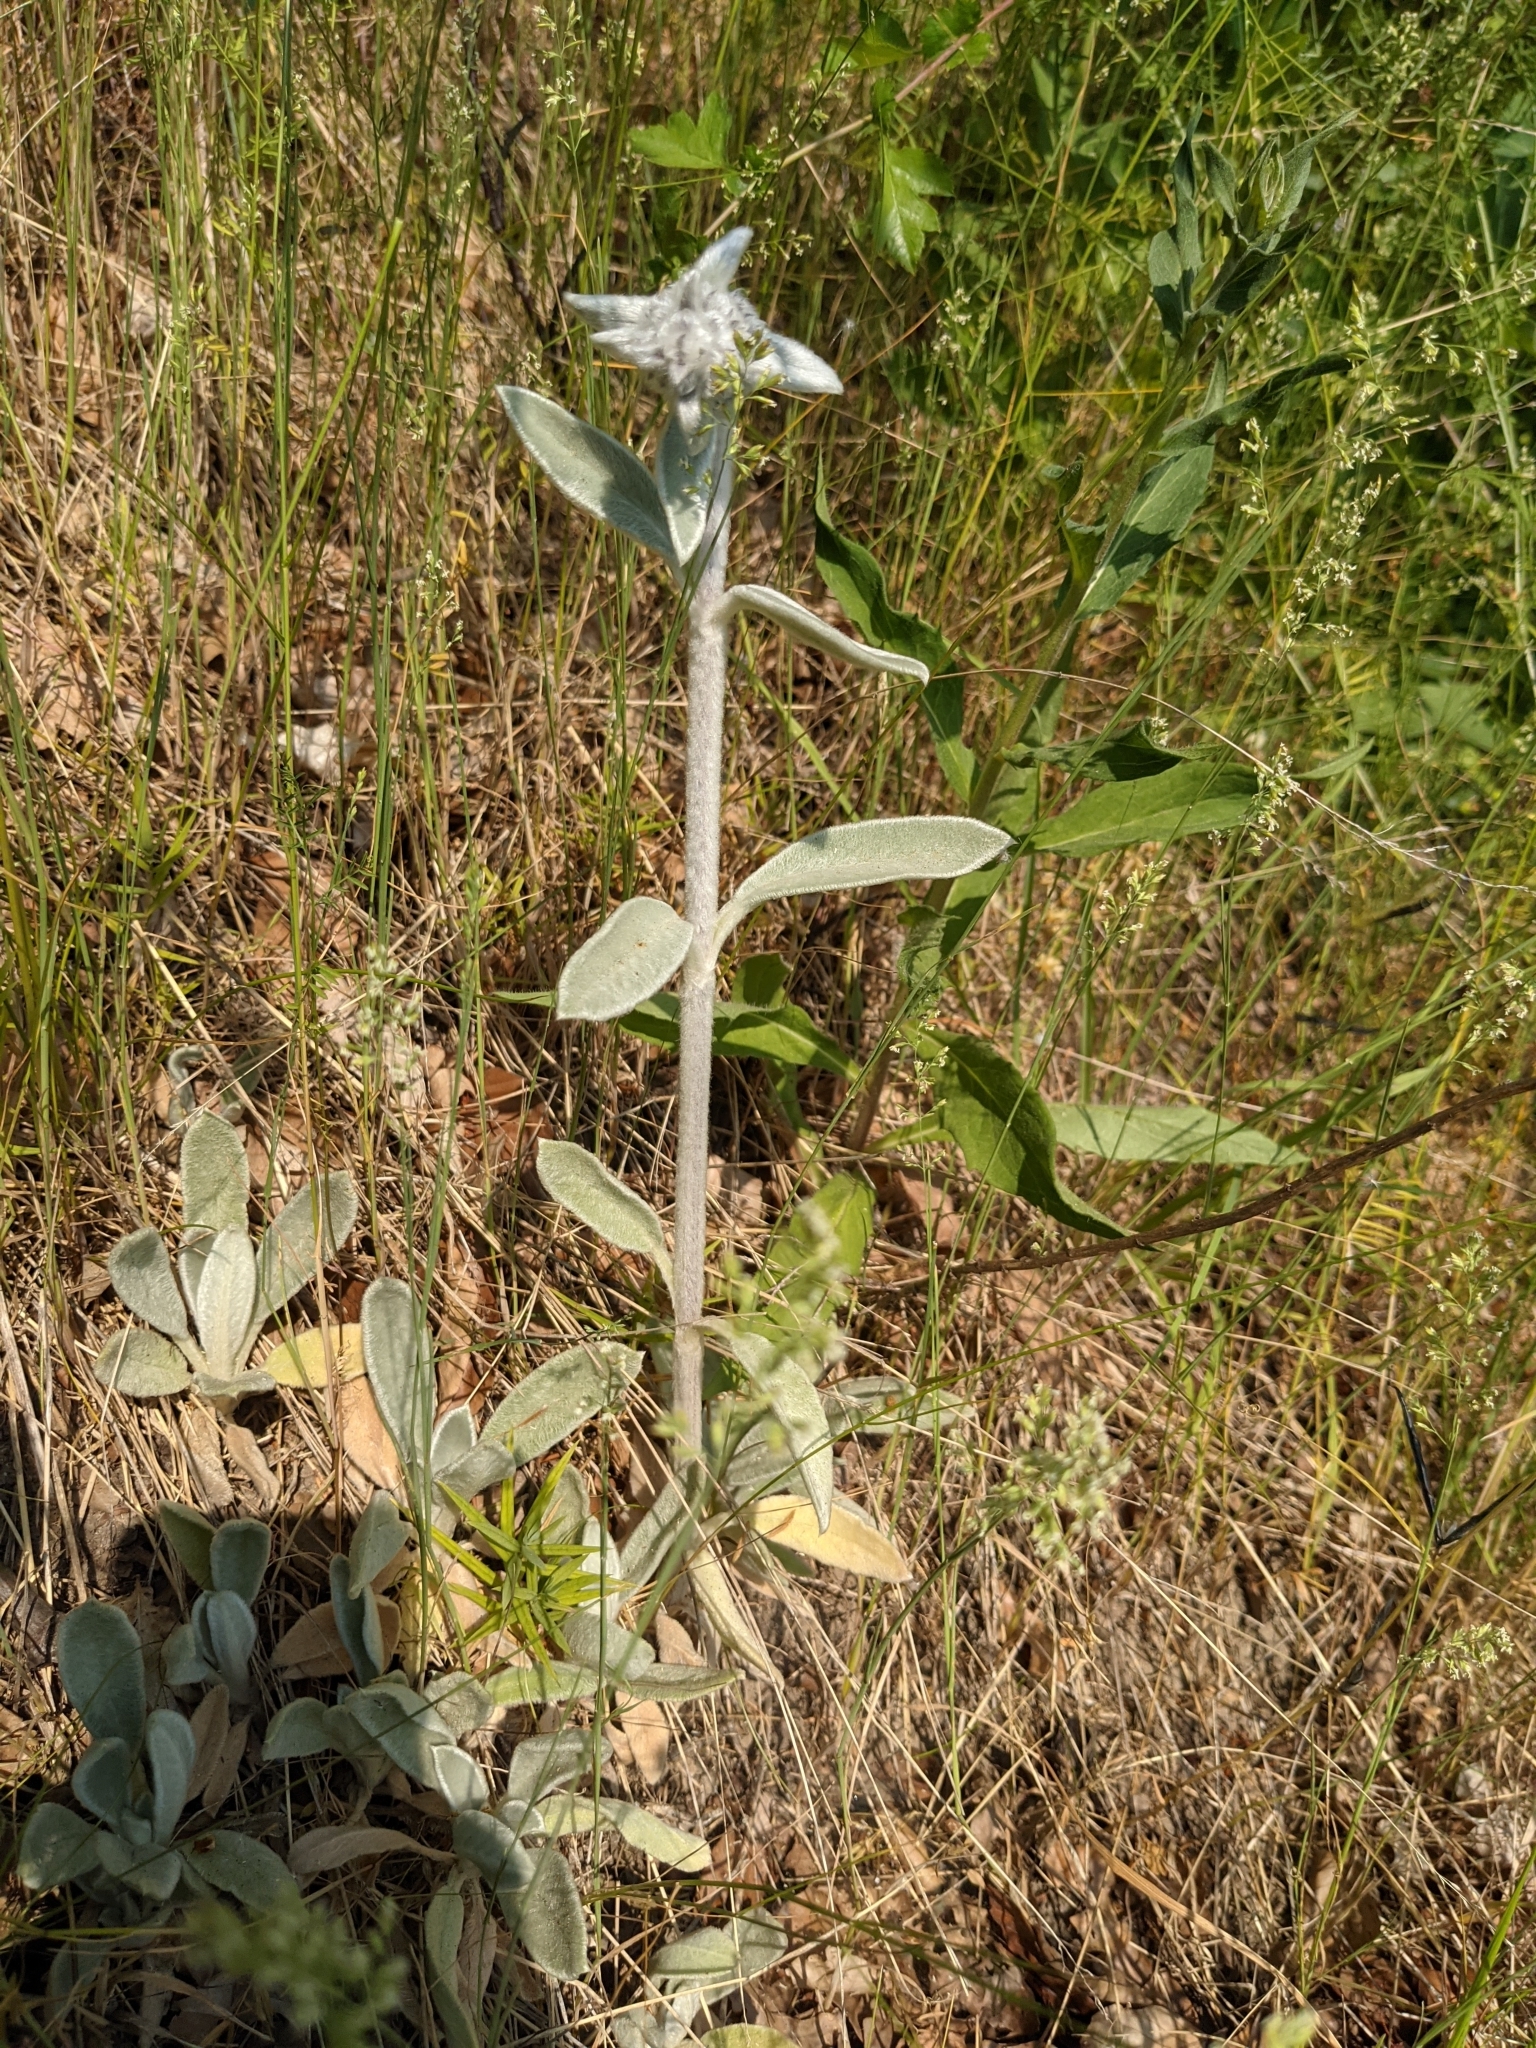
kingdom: Plantae
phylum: Tracheophyta
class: Magnoliopsida
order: Lamiales
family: Lamiaceae
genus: Stachys
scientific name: Stachys byzantina
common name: Lamb's-ear
